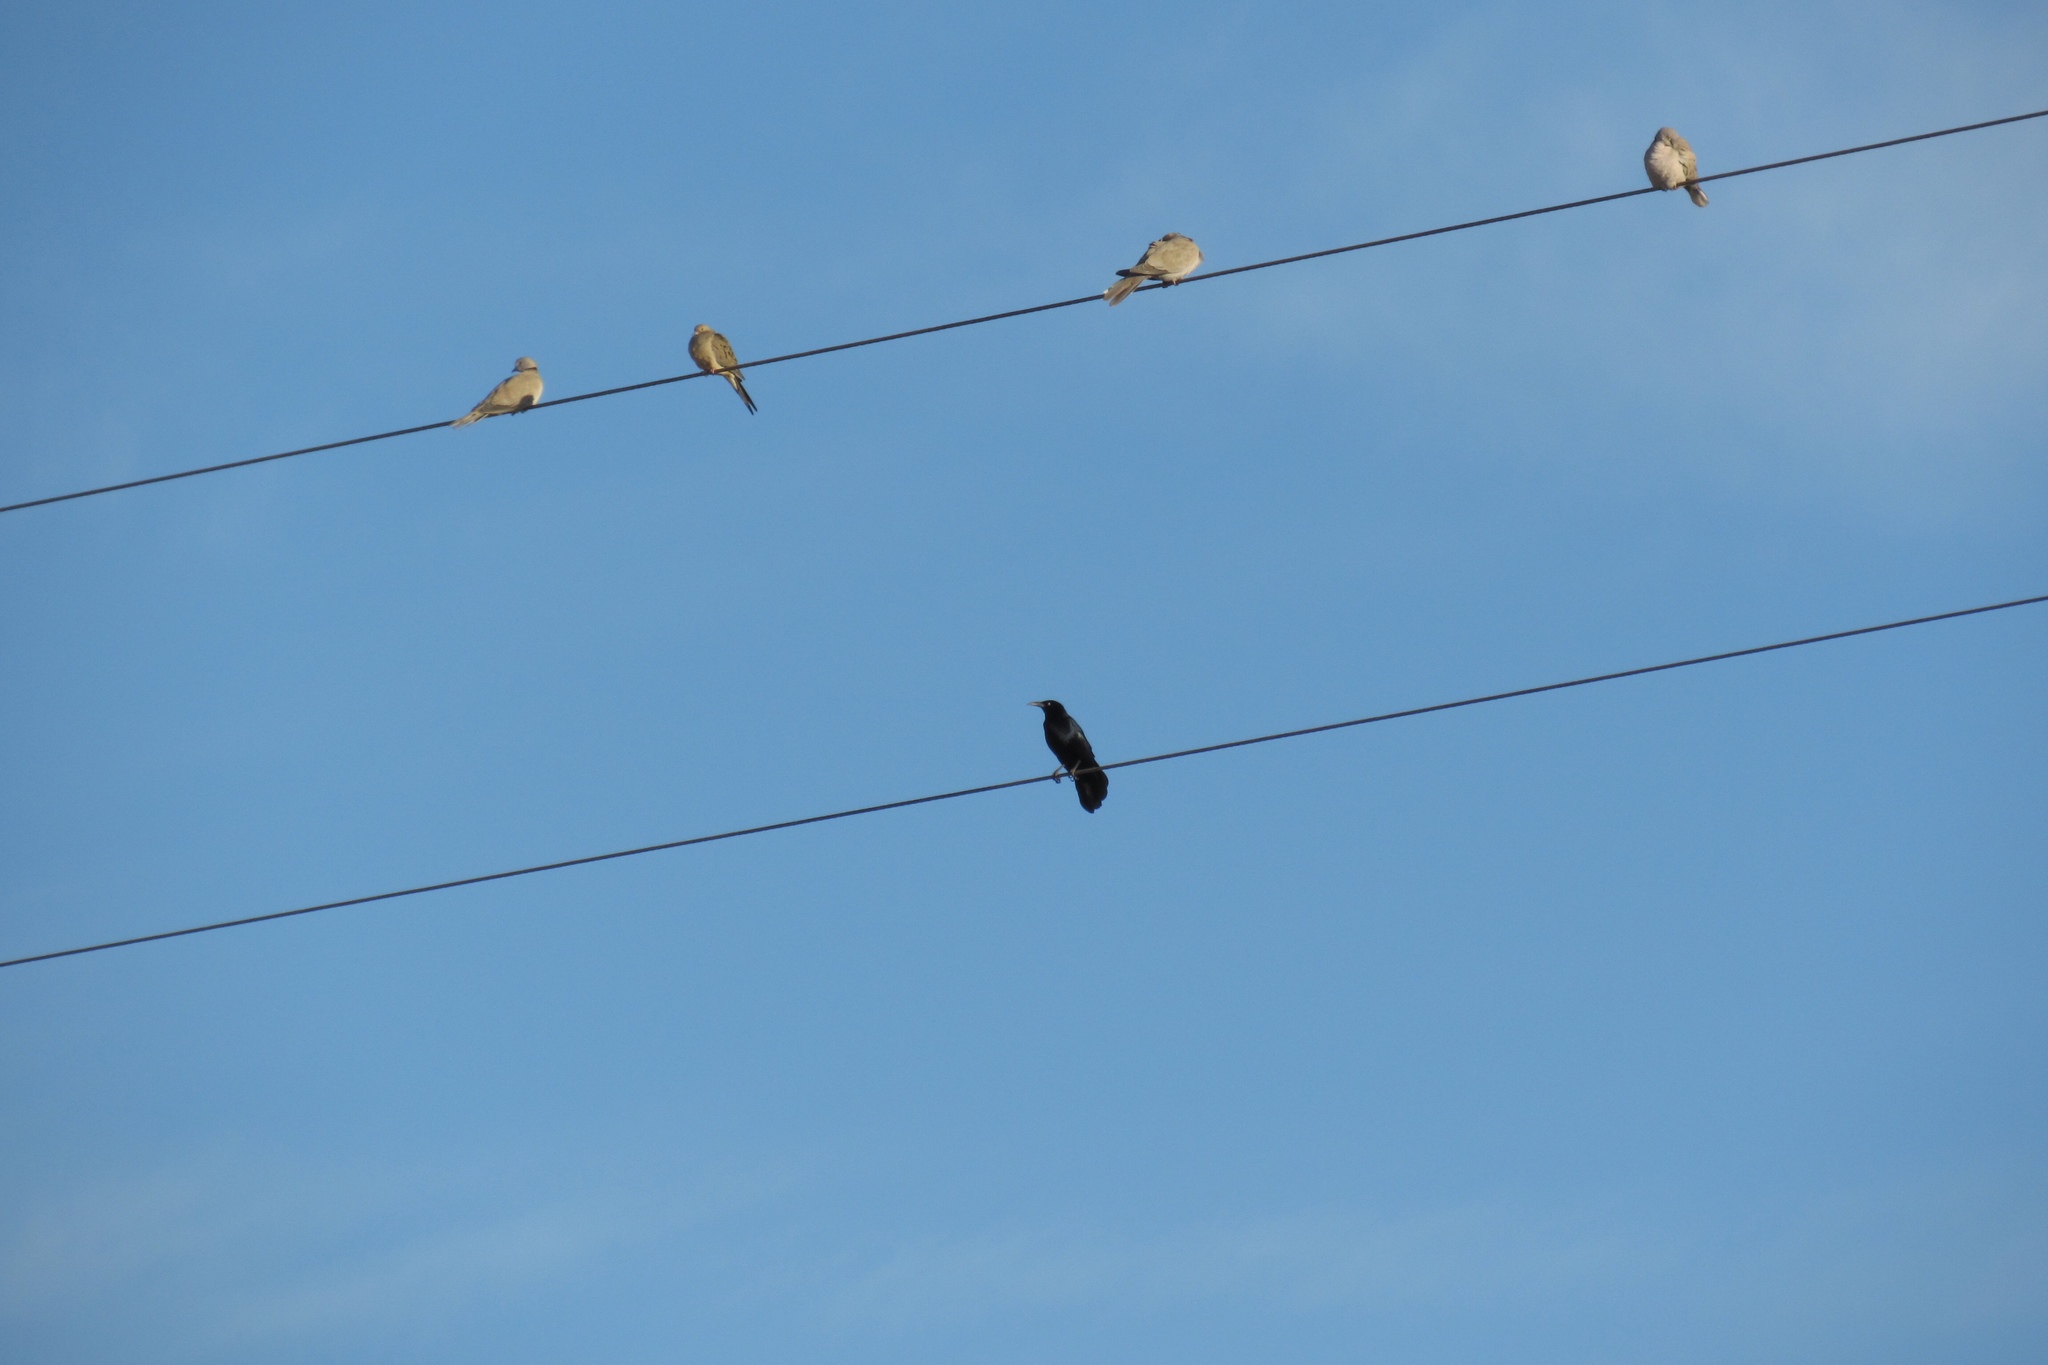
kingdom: Animalia
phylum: Chordata
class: Aves
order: Passeriformes
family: Icteridae
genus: Quiscalus
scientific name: Quiscalus mexicanus
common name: Great-tailed grackle
